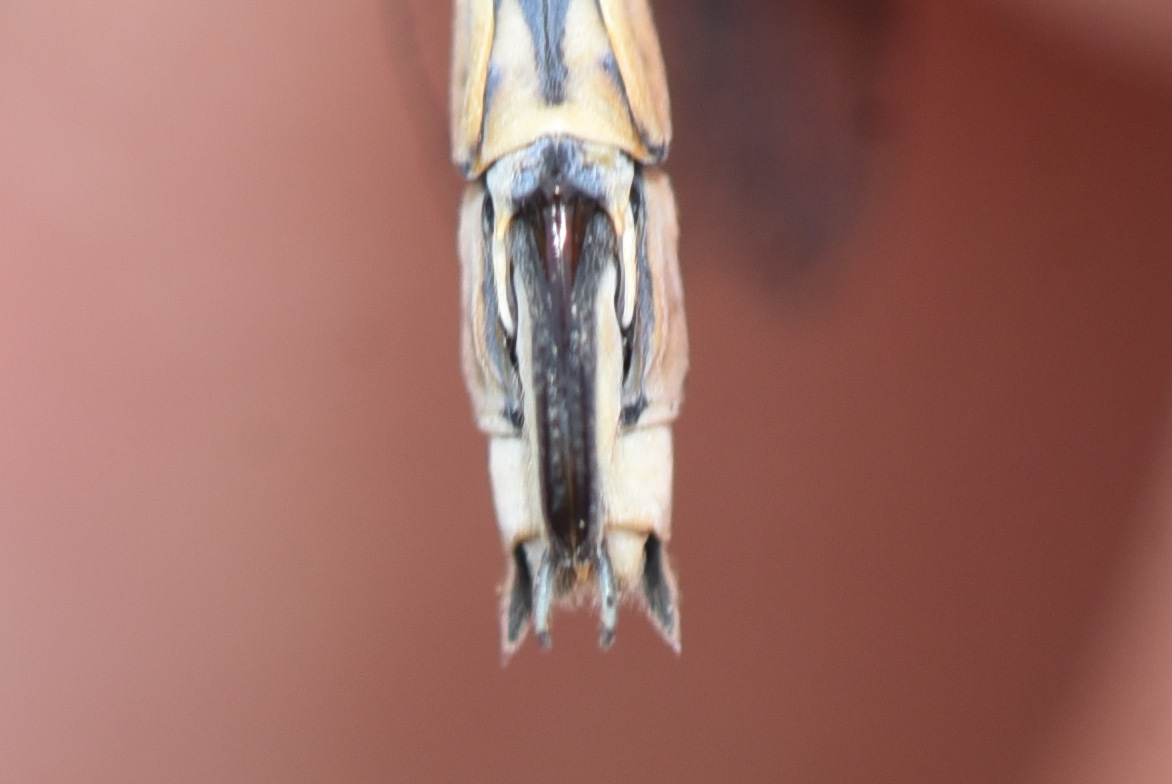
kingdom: Animalia
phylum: Arthropoda
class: Insecta
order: Odonata
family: Lestidae
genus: Lestes
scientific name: Lestes dryas
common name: Scarce emerald damselfly
